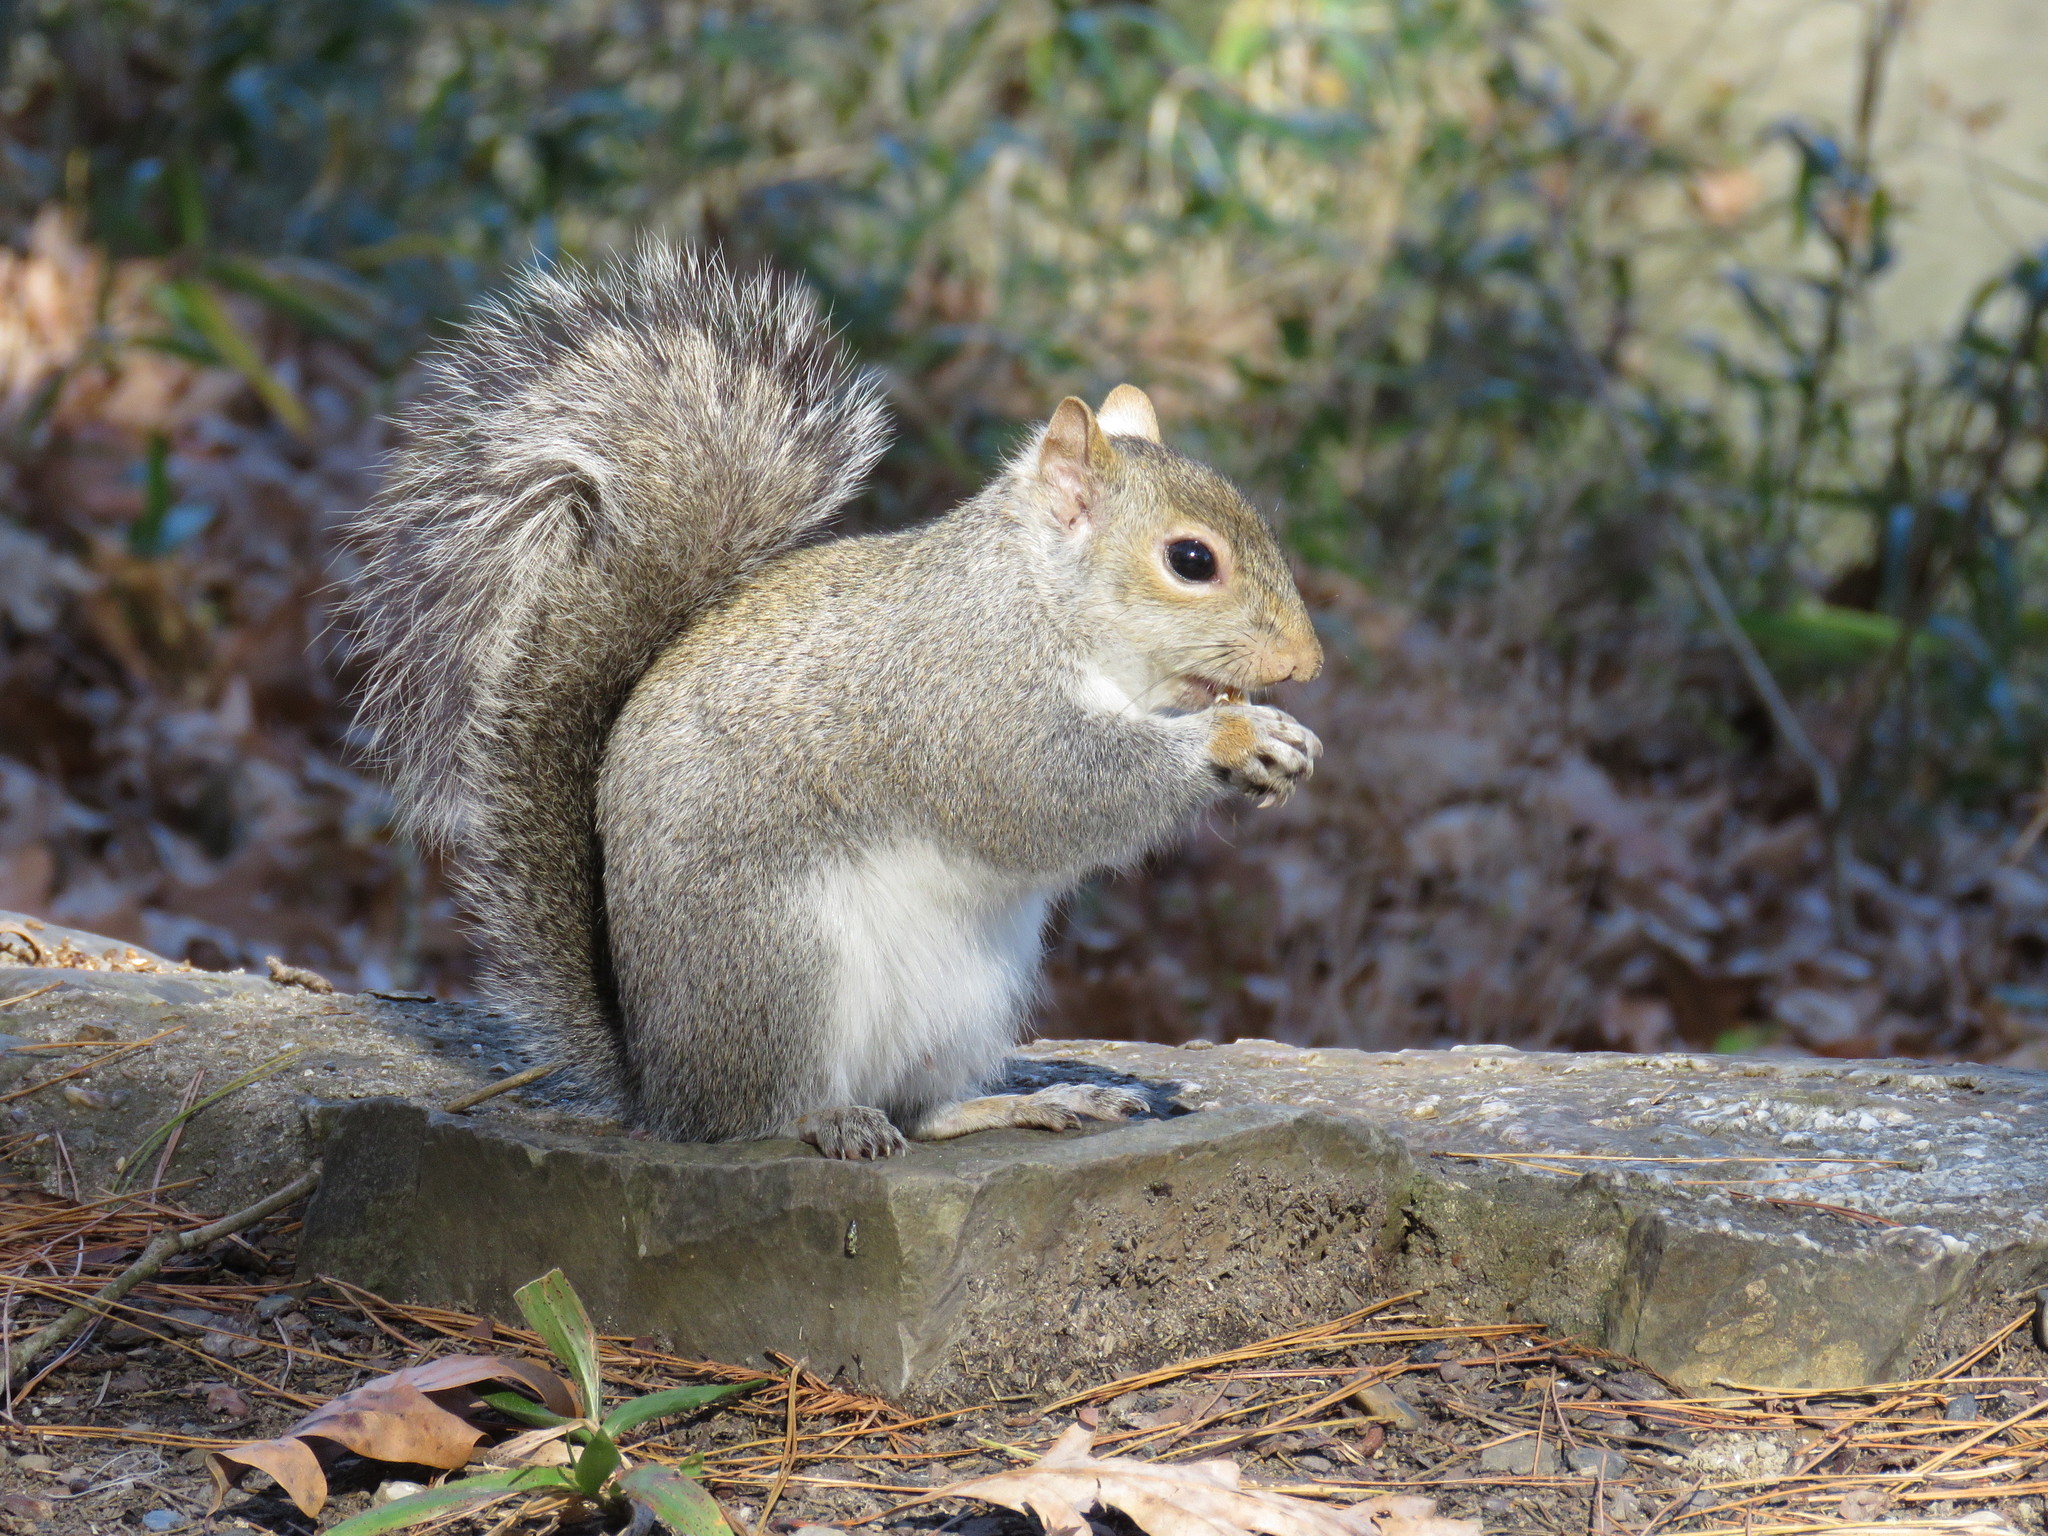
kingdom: Animalia
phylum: Chordata
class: Mammalia
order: Rodentia
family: Sciuridae
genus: Sciurus
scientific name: Sciurus carolinensis
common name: Eastern gray squirrel
